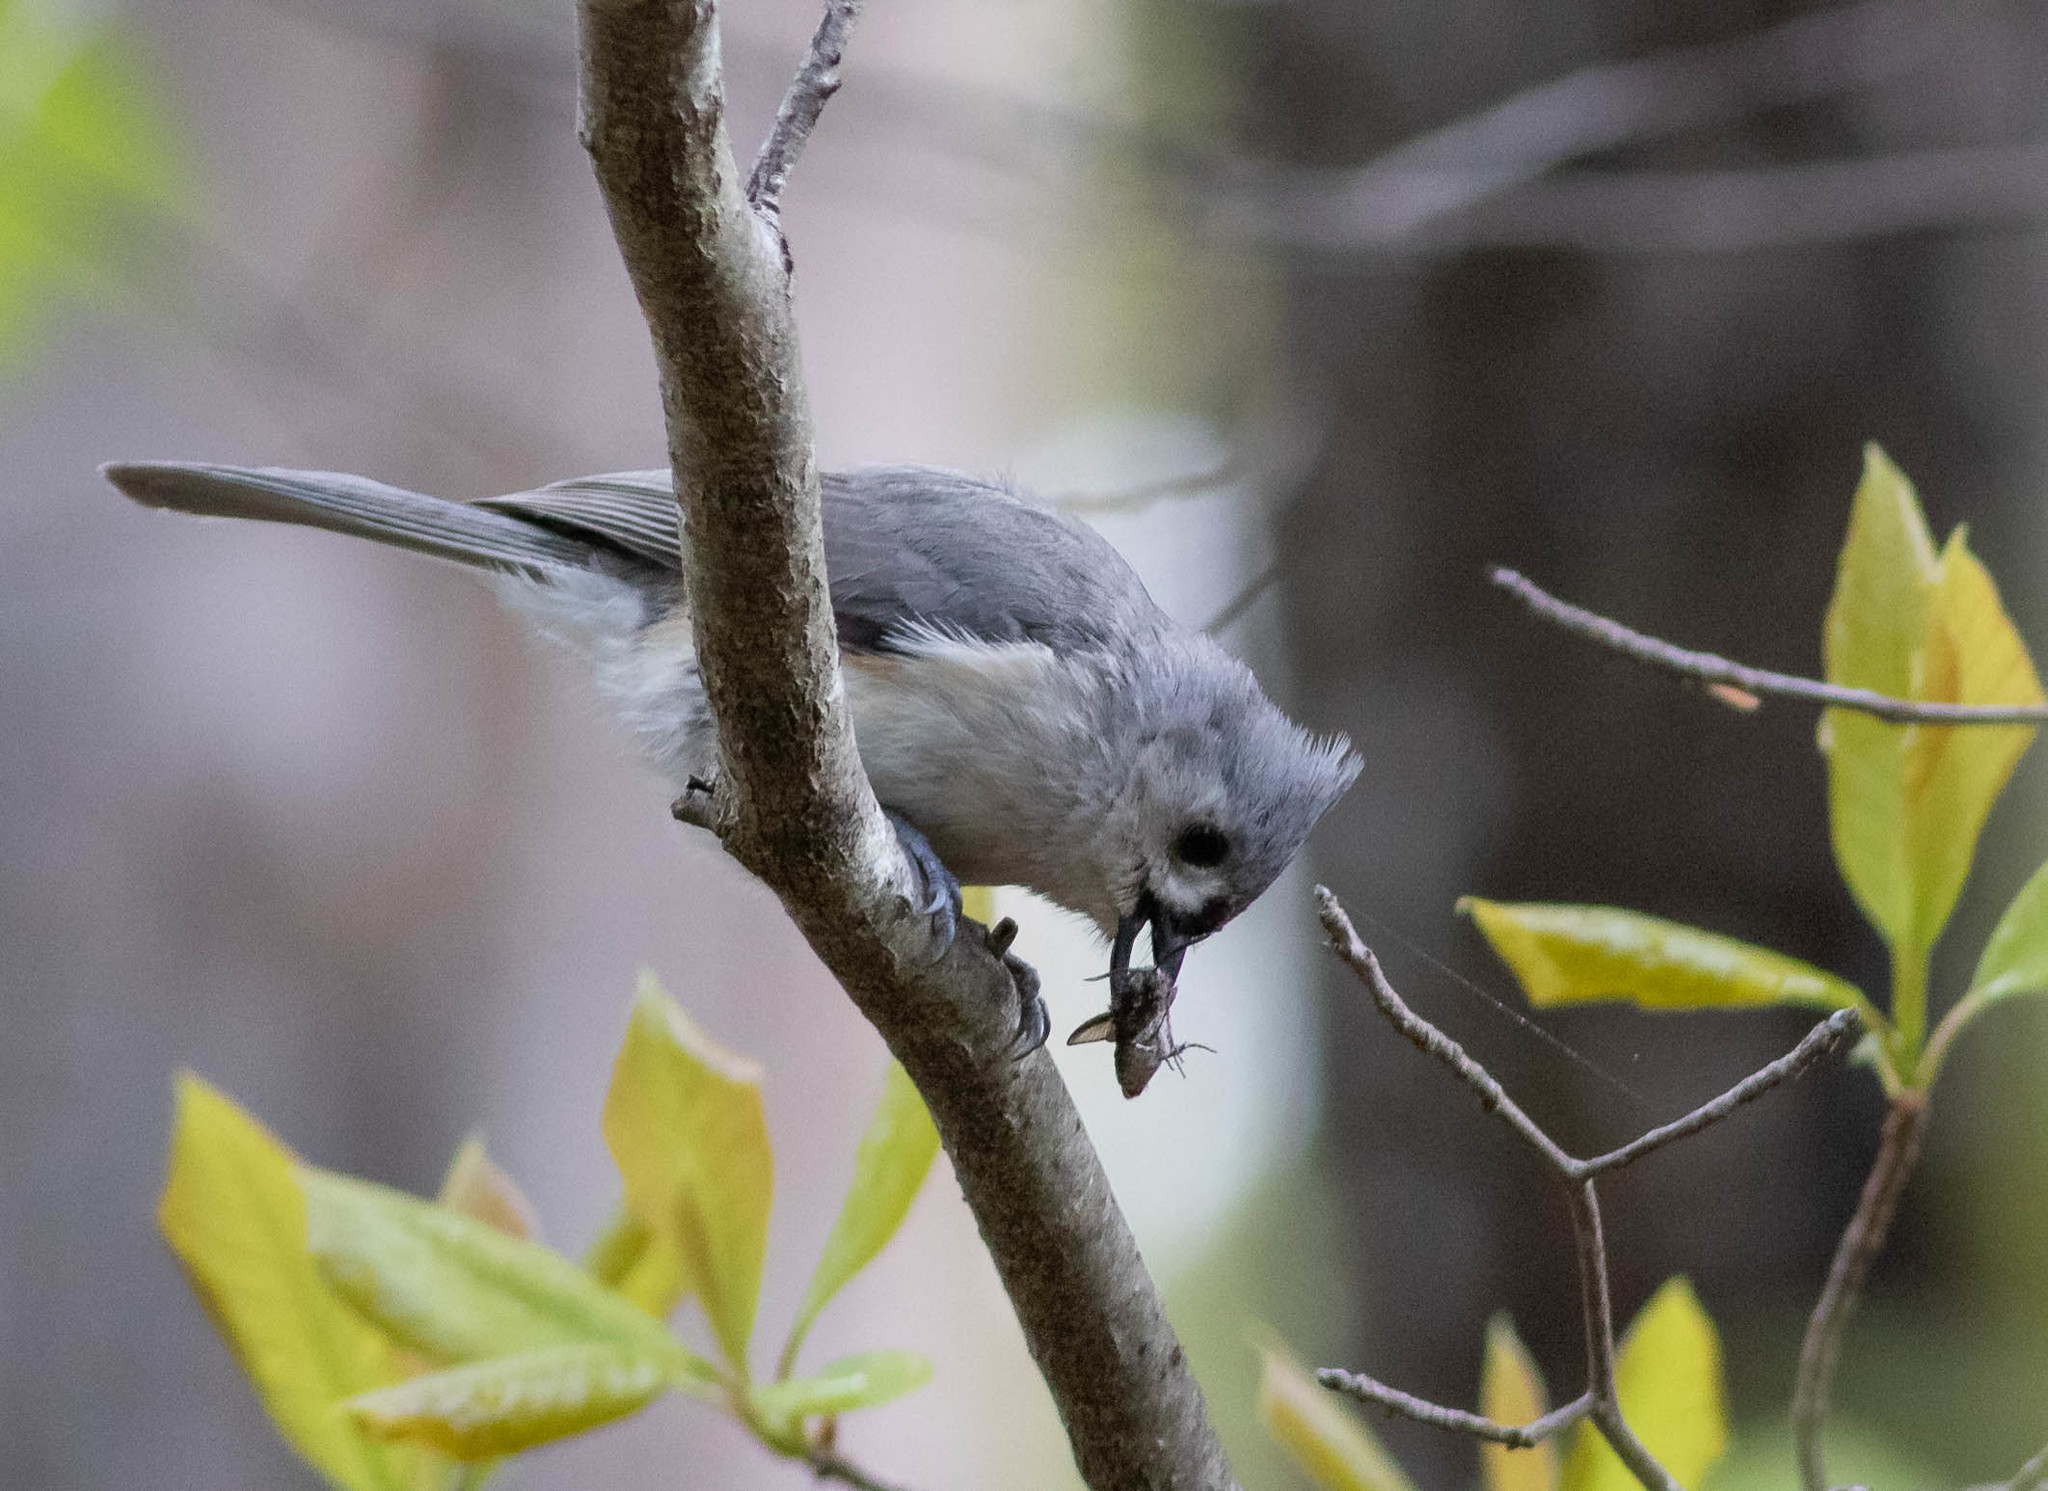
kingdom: Animalia
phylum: Chordata
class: Aves
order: Passeriformes
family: Paridae
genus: Baeolophus
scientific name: Baeolophus bicolor
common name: Tufted titmouse
